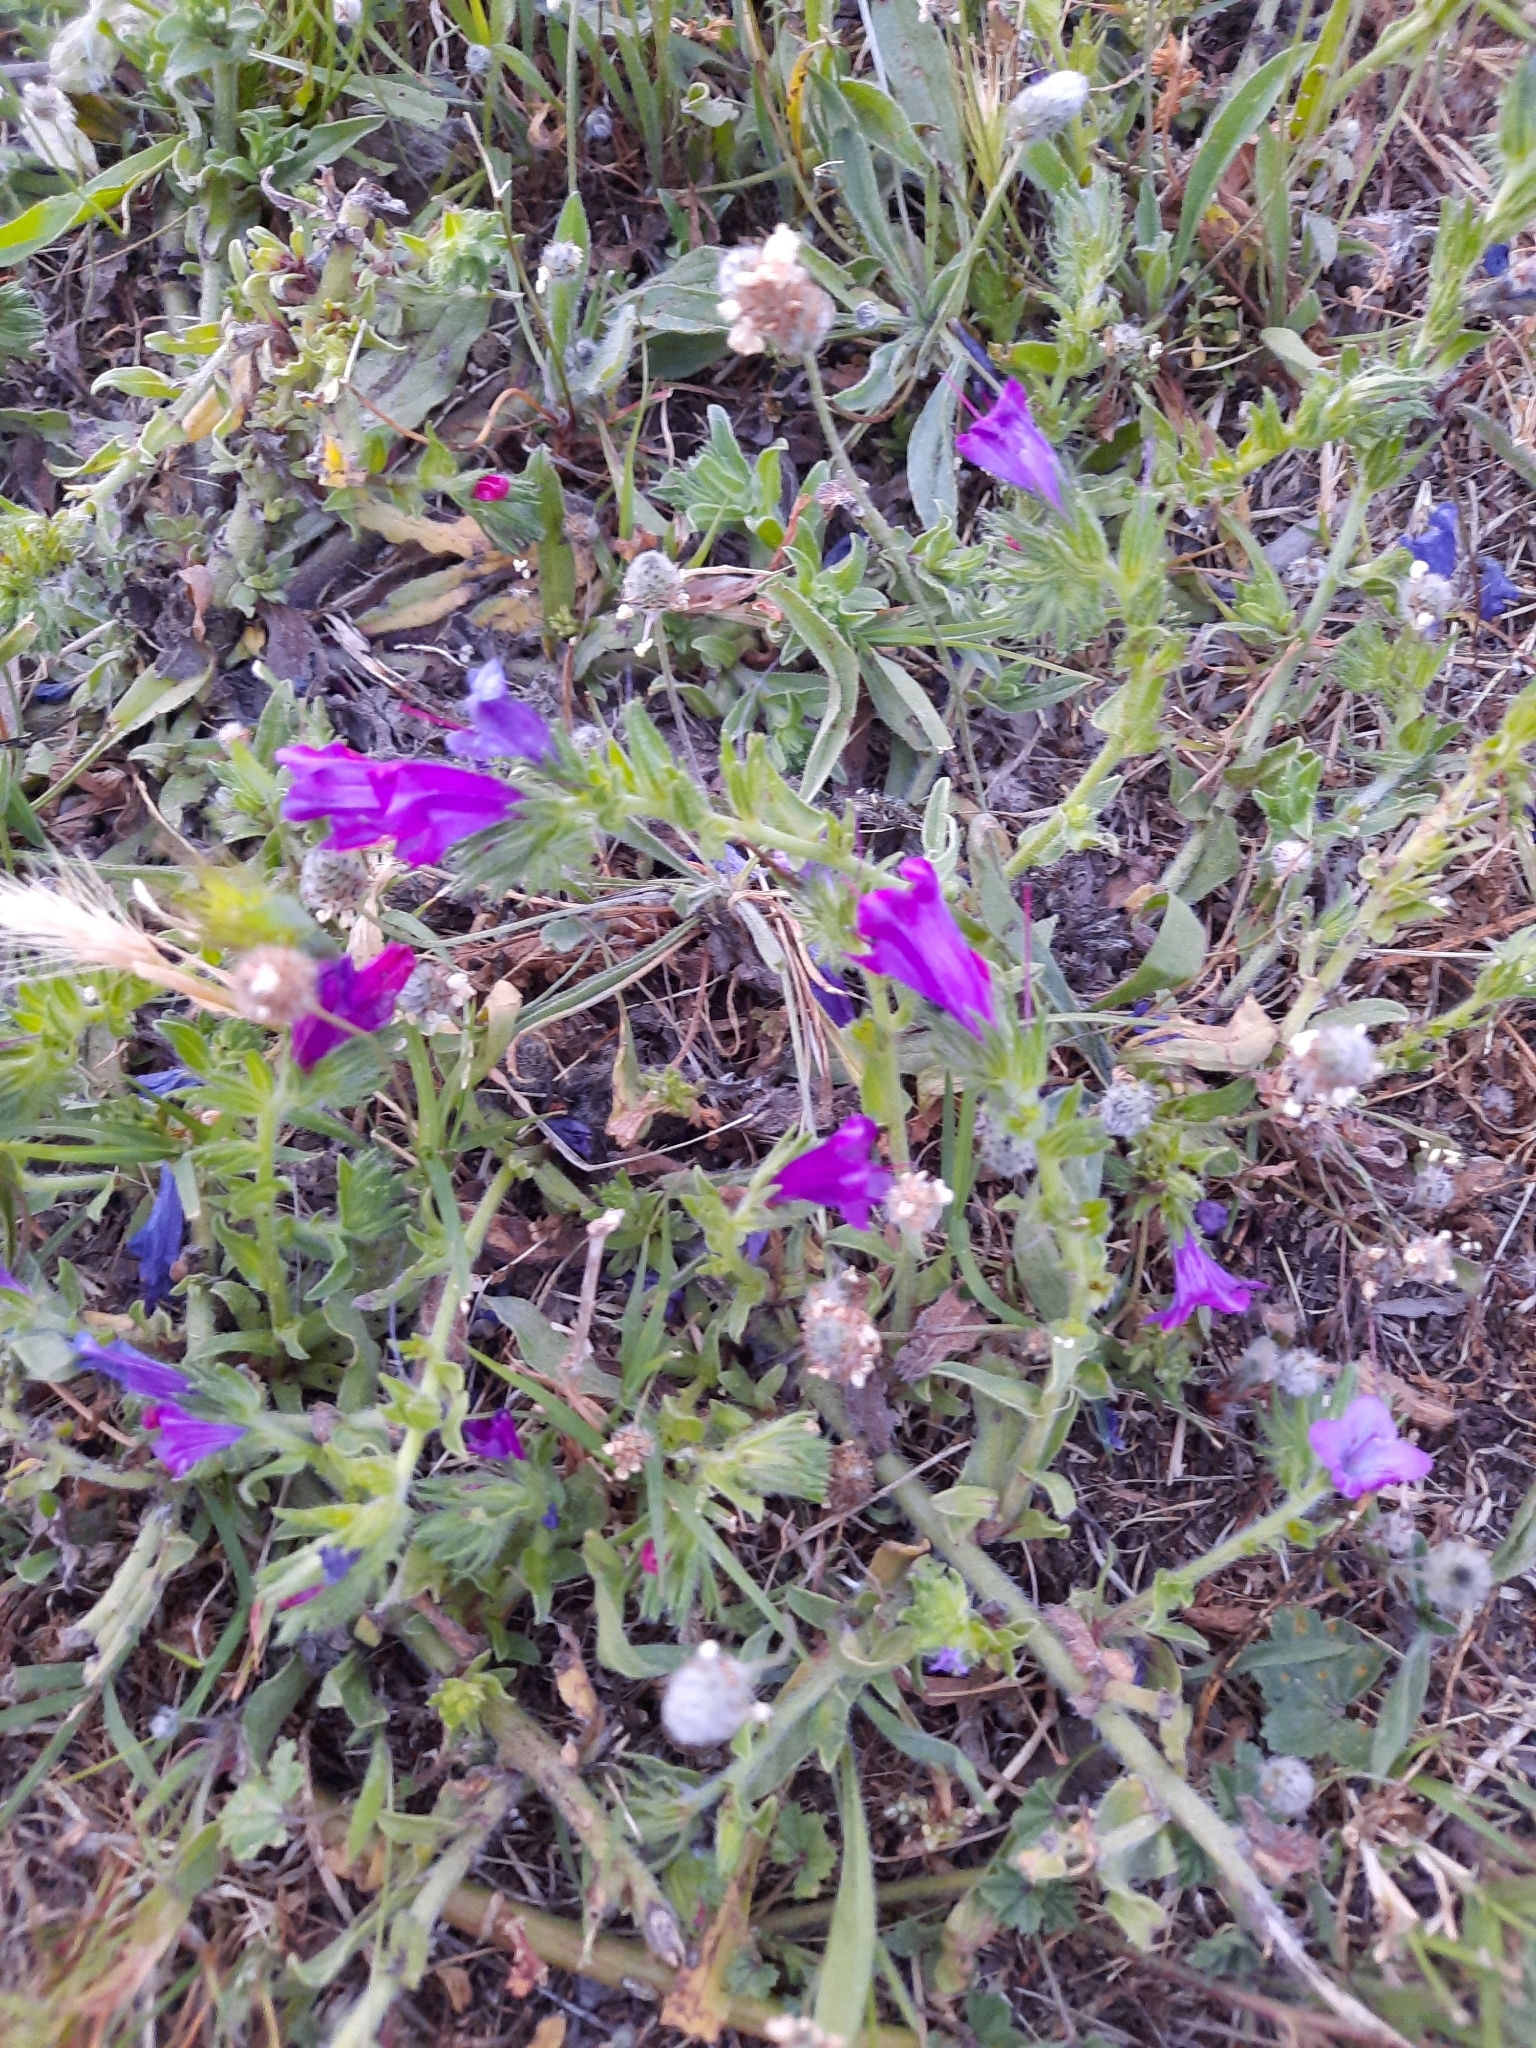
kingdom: Plantae
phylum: Tracheophyta
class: Magnoliopsida
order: Boraginales
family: Boraginaceae
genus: Echium
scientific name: Echium plantagineum
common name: Purple viper's-bugloss
